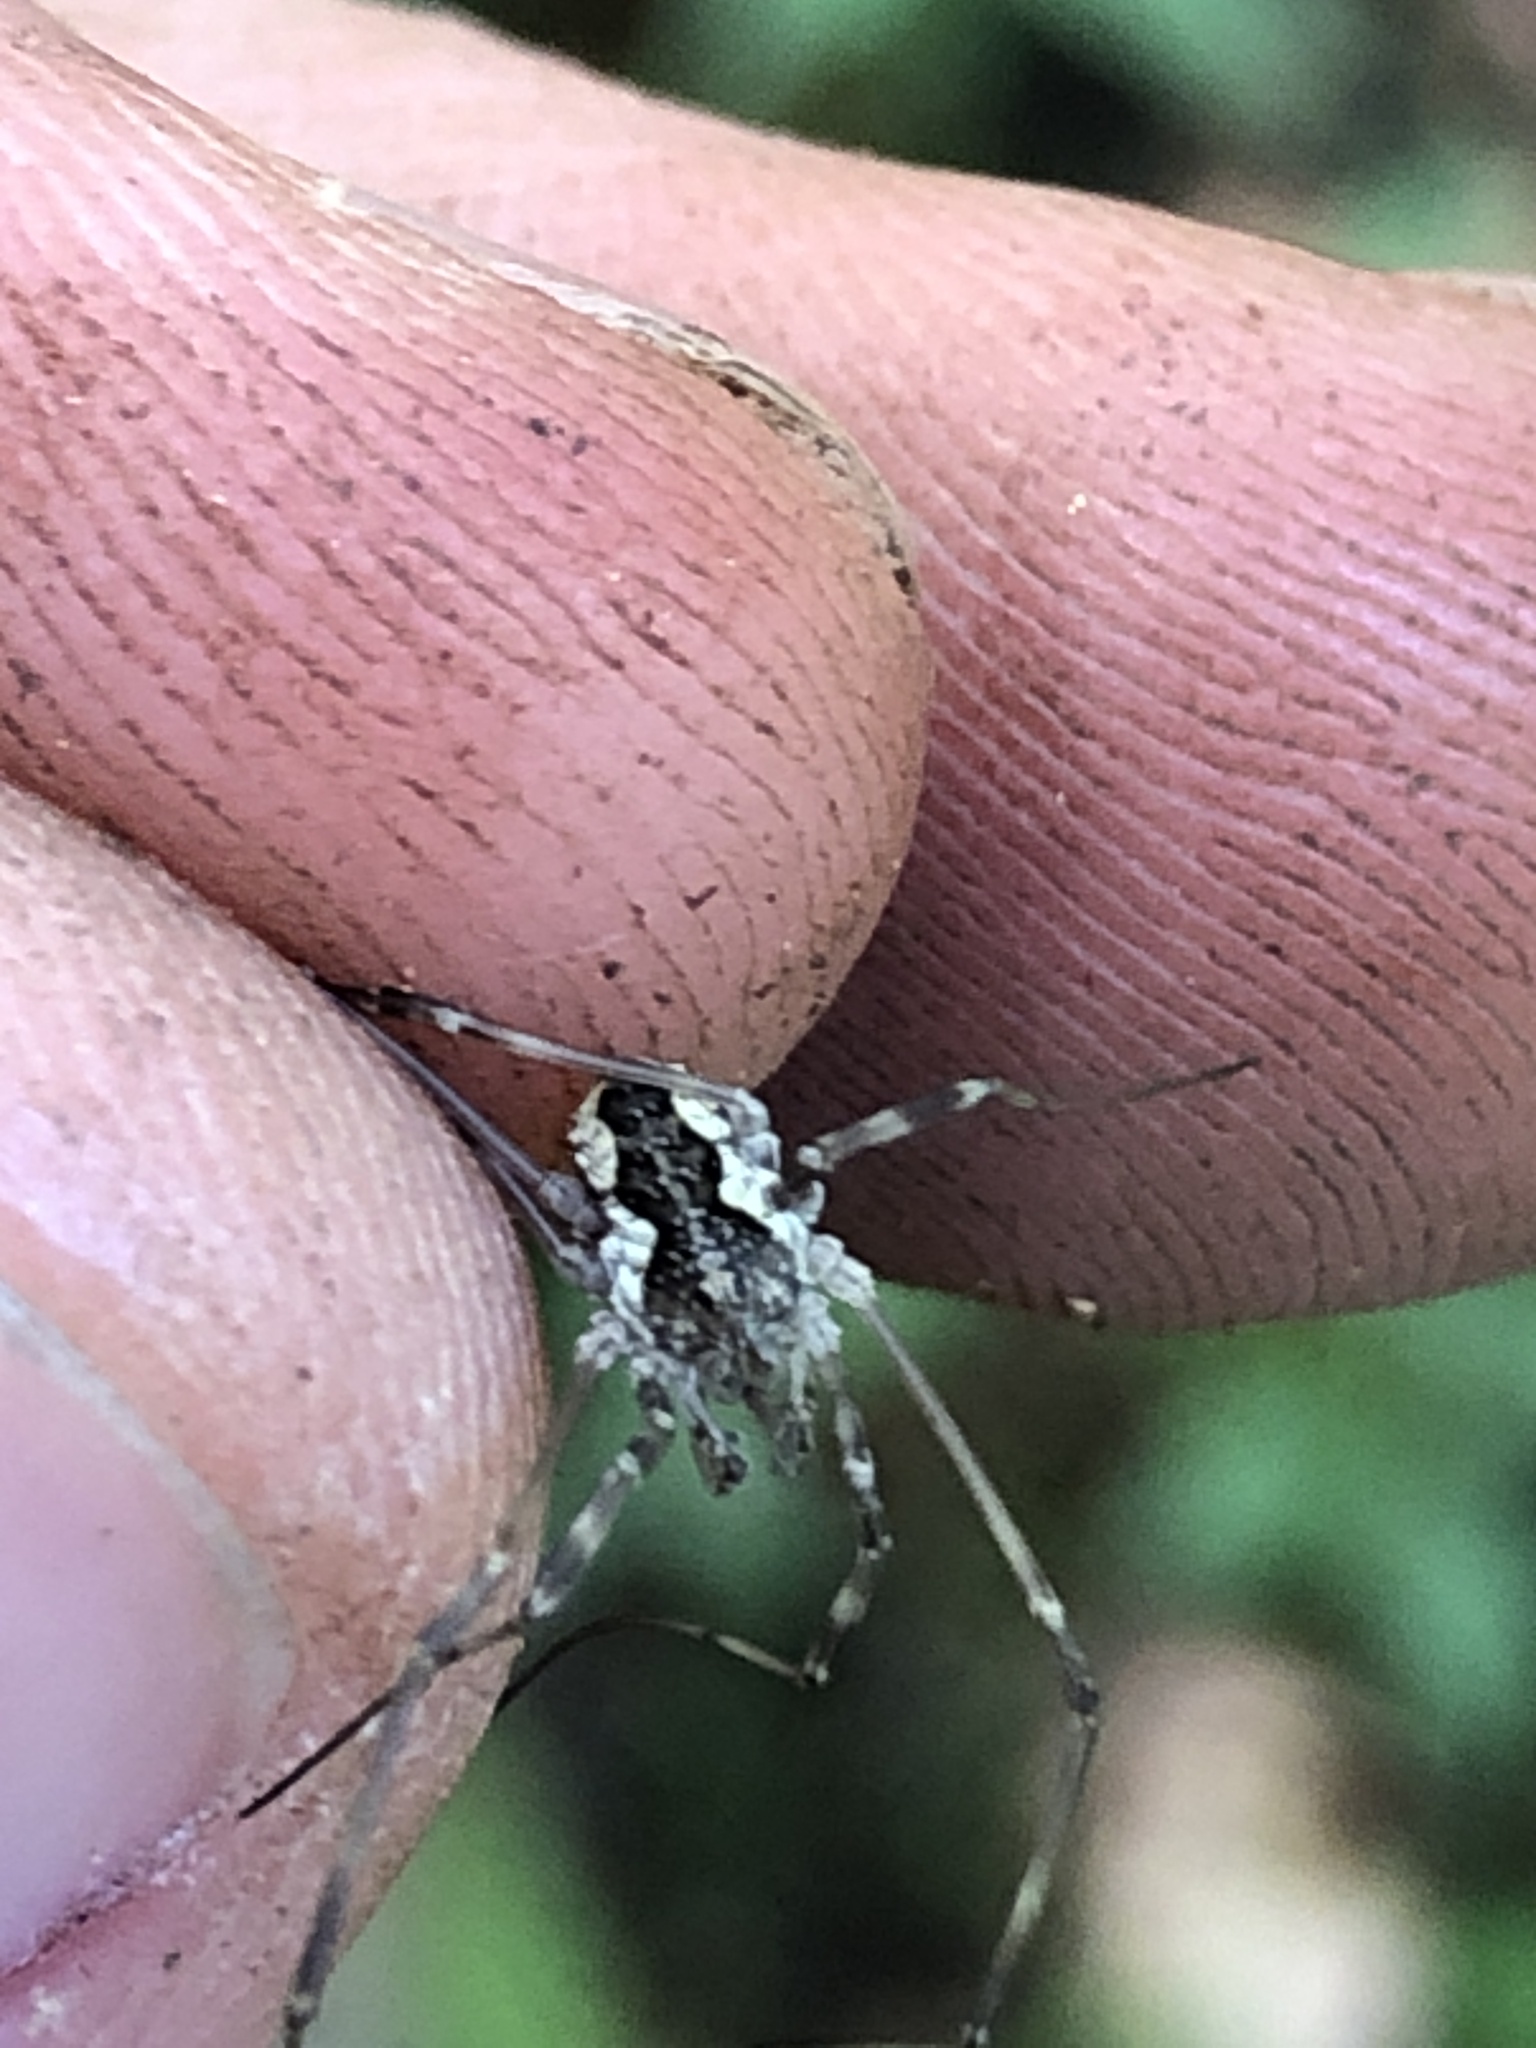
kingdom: Animalia
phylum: Arthropoda
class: Arachnida
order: Opiliones
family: Phalangiidae
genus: Mitopus
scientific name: Mitopus morio
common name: Saddleback harvestman
